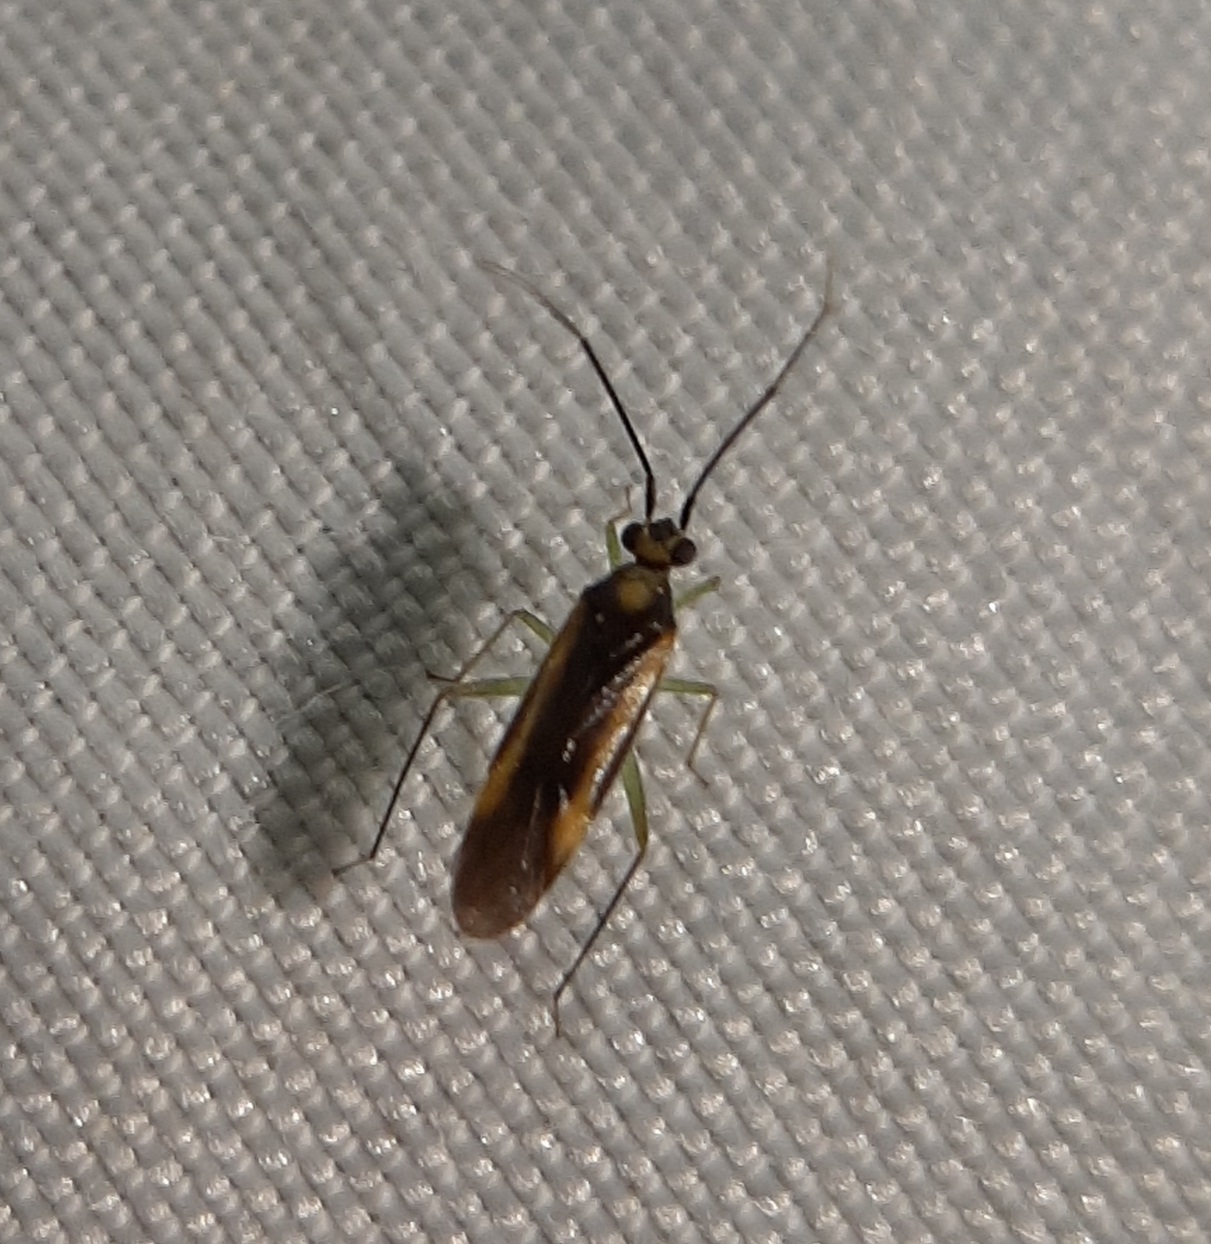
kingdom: Animalia
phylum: Arthropoda
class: Insecta
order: Hemiptera
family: Miridae
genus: Orthotylus
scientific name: Orthotylus submarginatus
